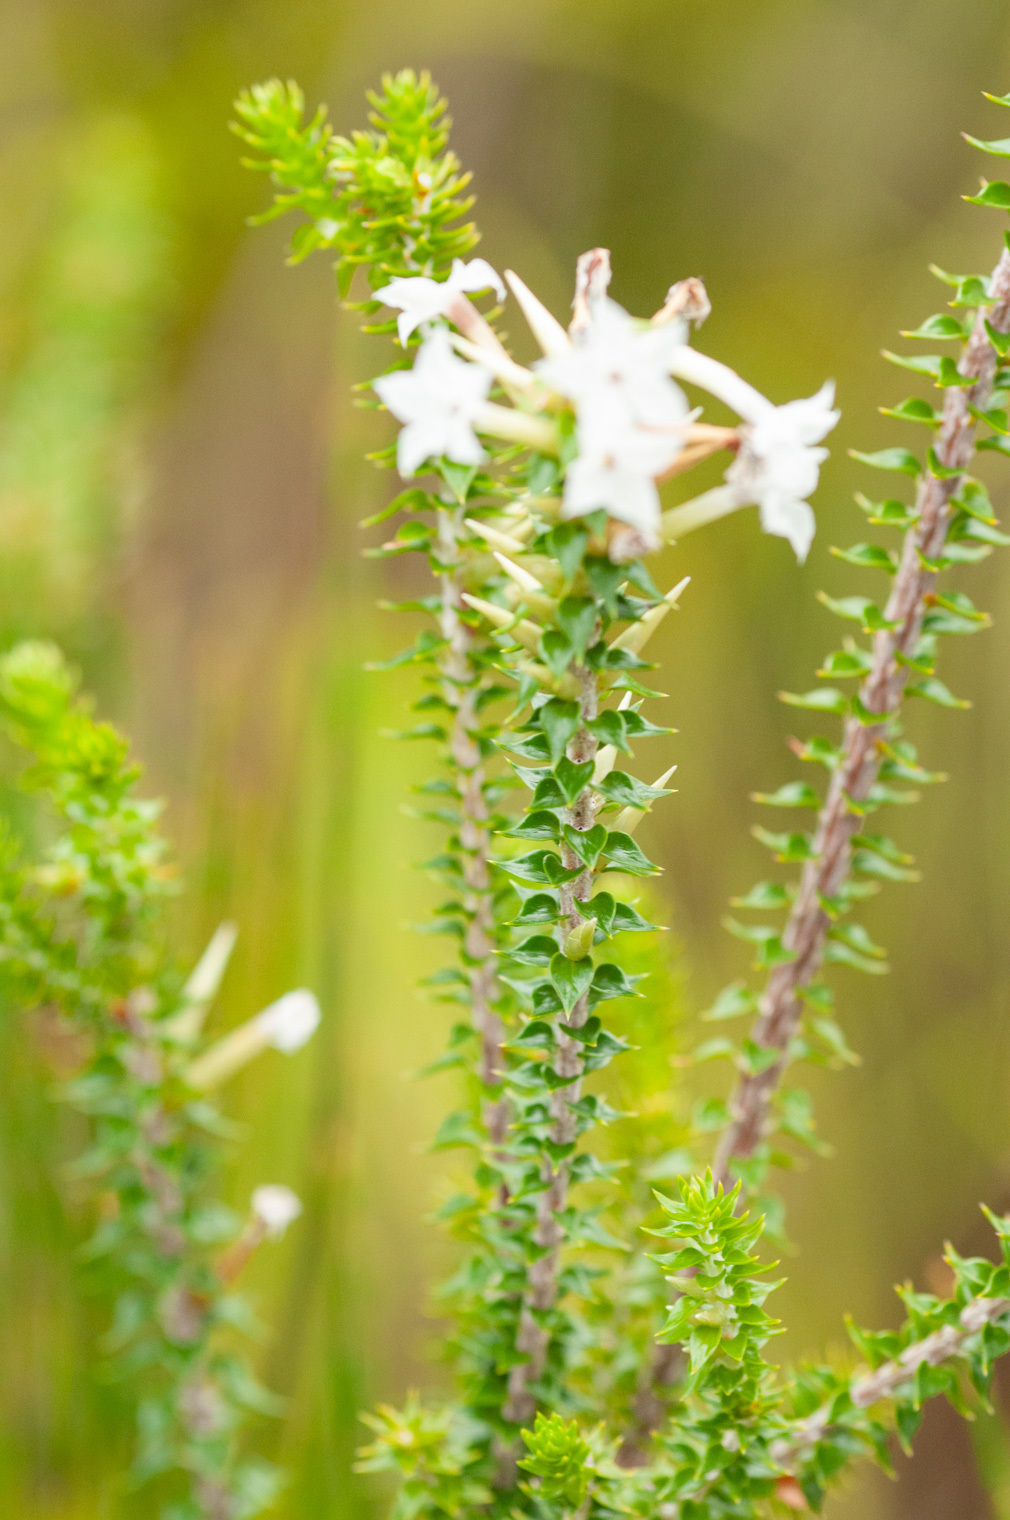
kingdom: Plantae
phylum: Tracheophyta
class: Magnoliopsida
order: Ericales
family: Ericaceae
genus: Woollsia
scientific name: Woollsia pungens
